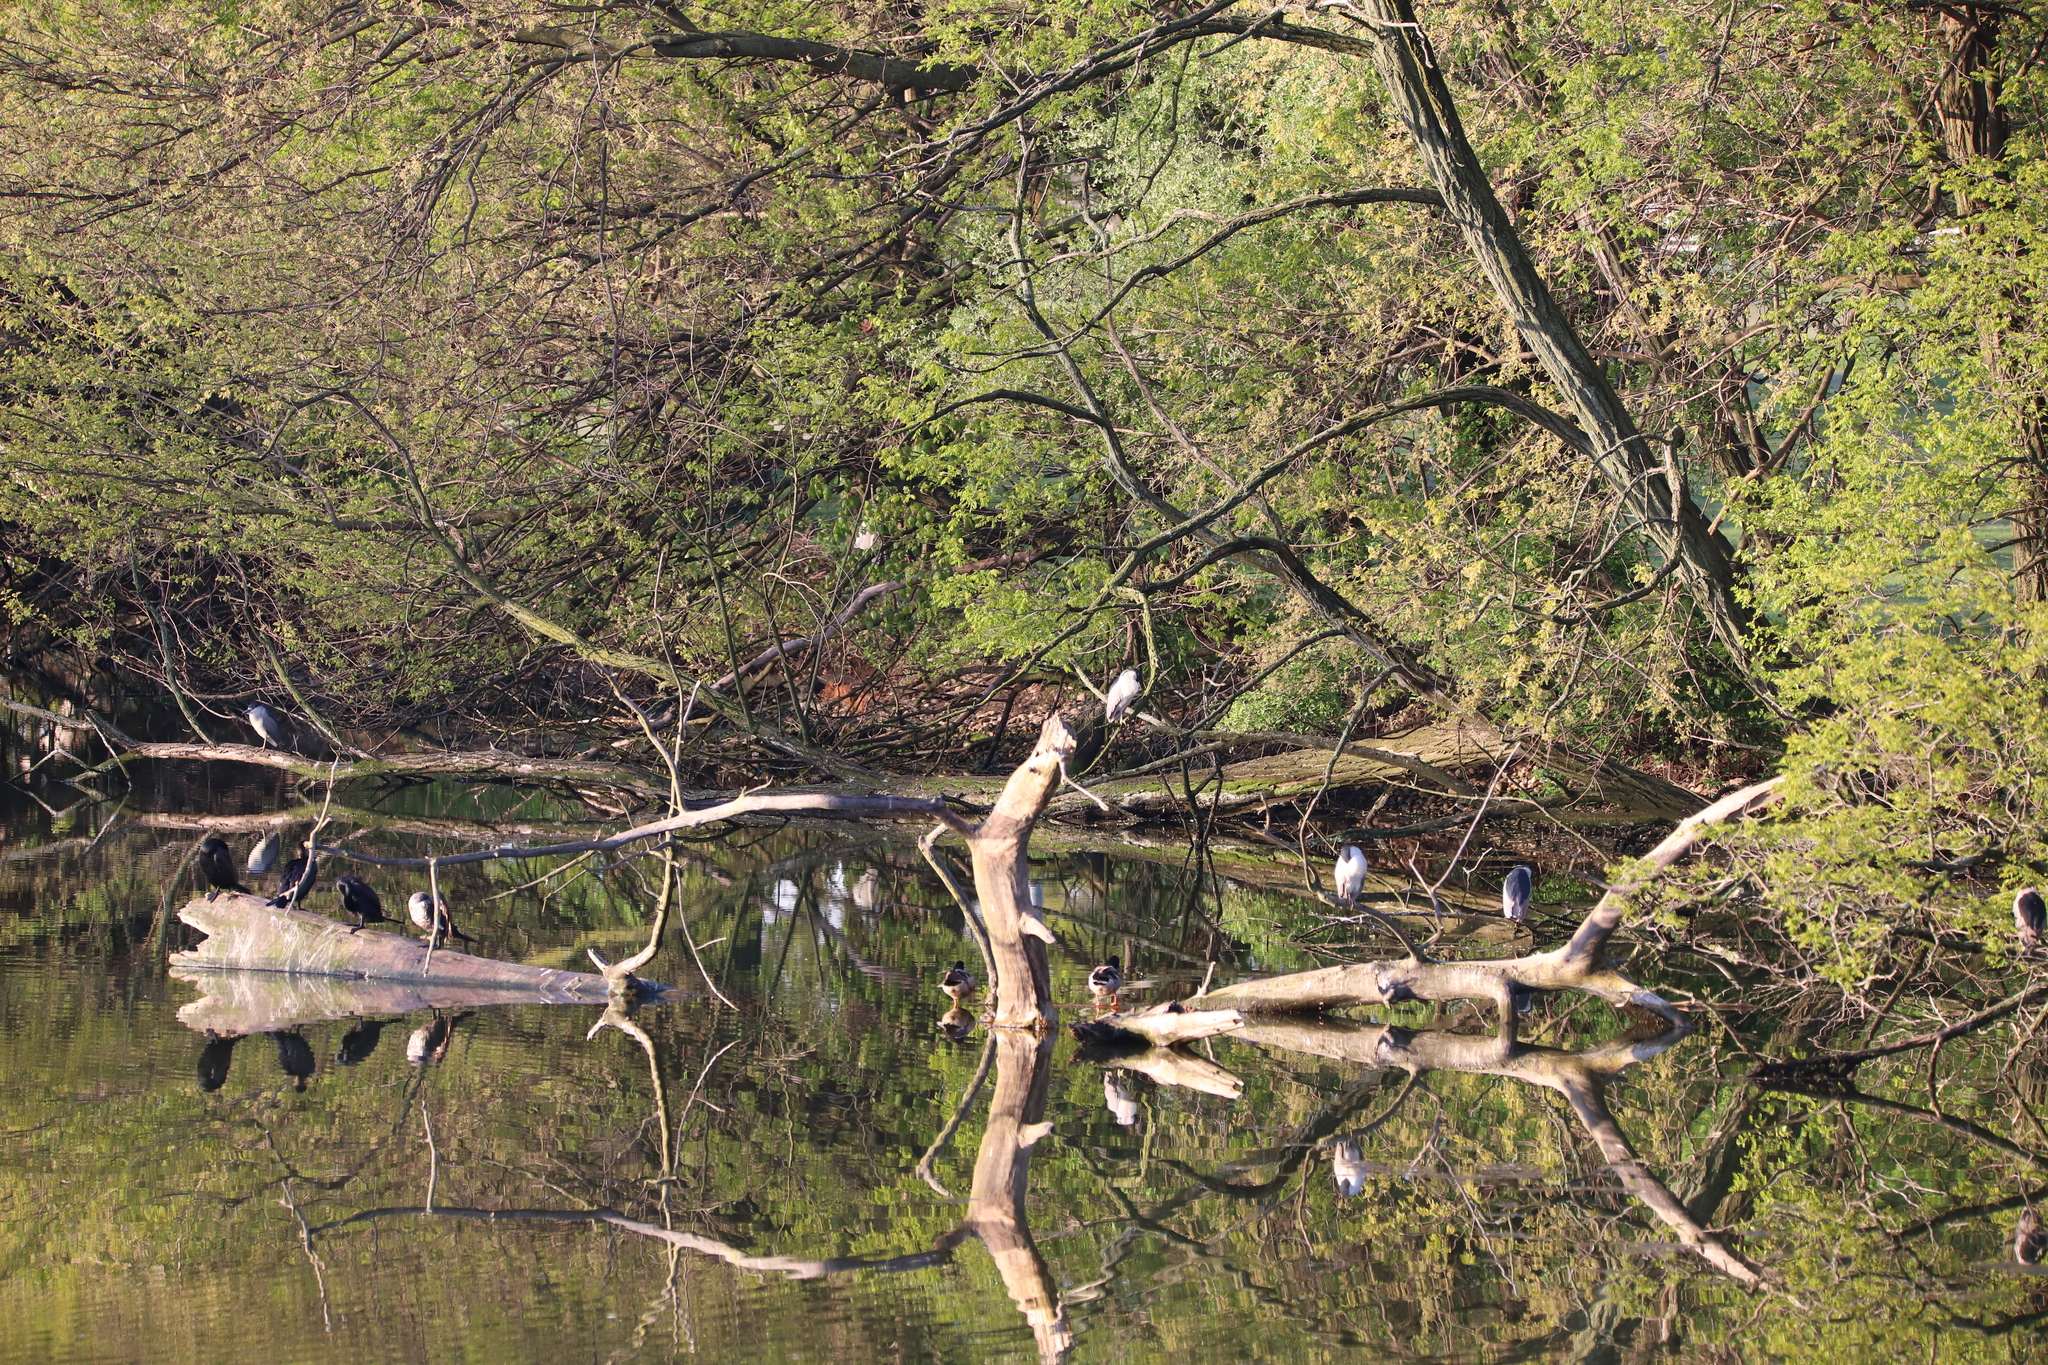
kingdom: Animalia
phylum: Chordata
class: Aves
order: Pelecaniformes
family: Ardeidae
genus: Nycticorax
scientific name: Nycticorax nycticorax
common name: Black-crowned night heron
